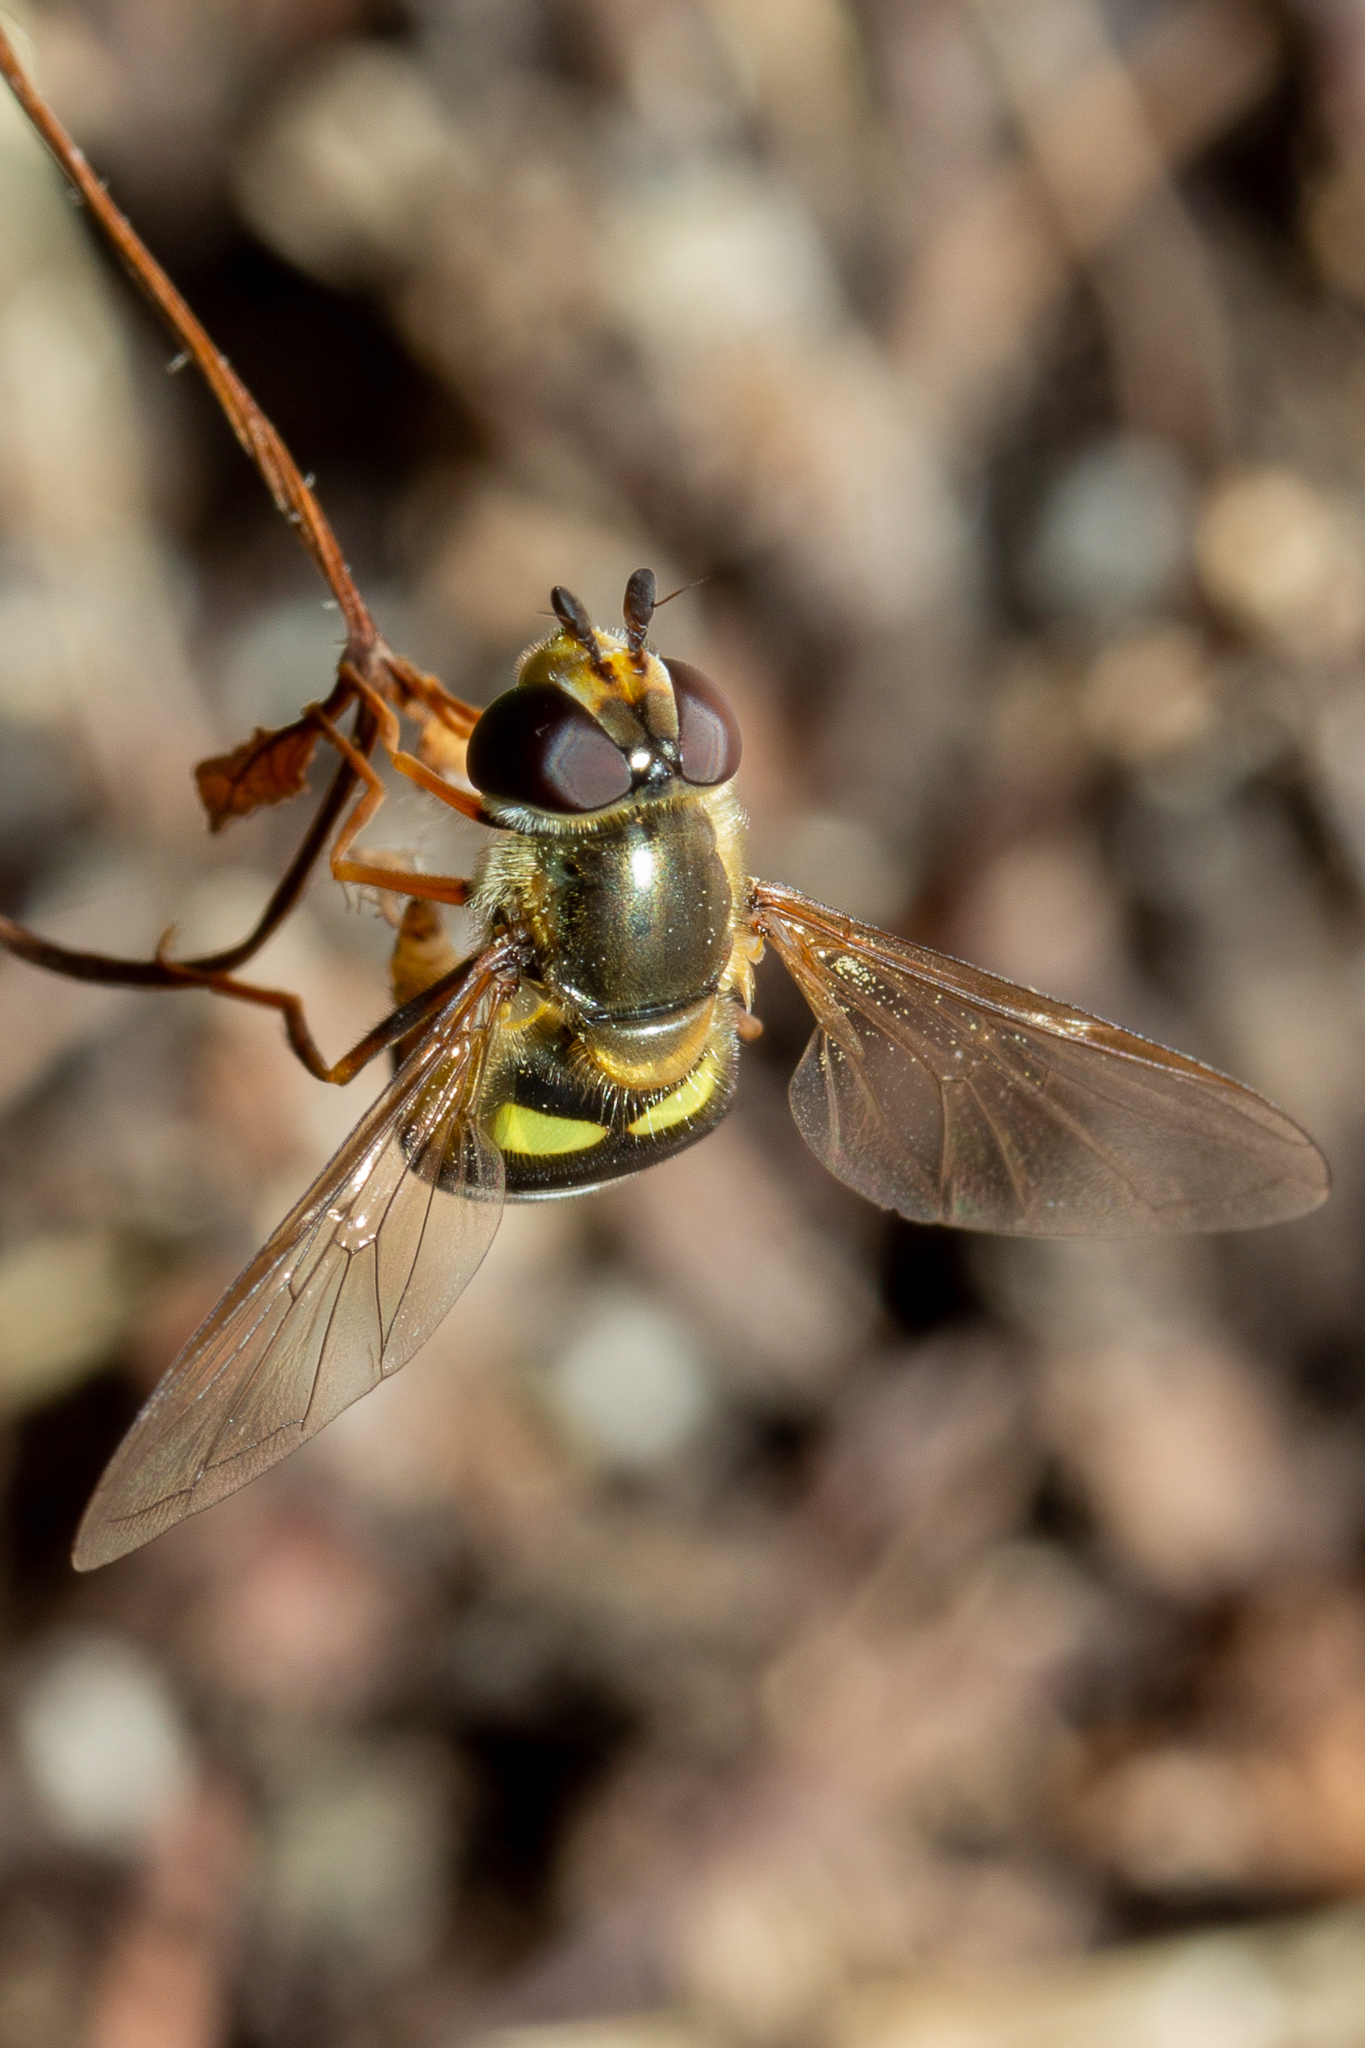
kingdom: Animalia
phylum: Arthropoda
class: Insecta
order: Diptera
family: Syrphidae
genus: Eupeodes
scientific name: Eupeodes
